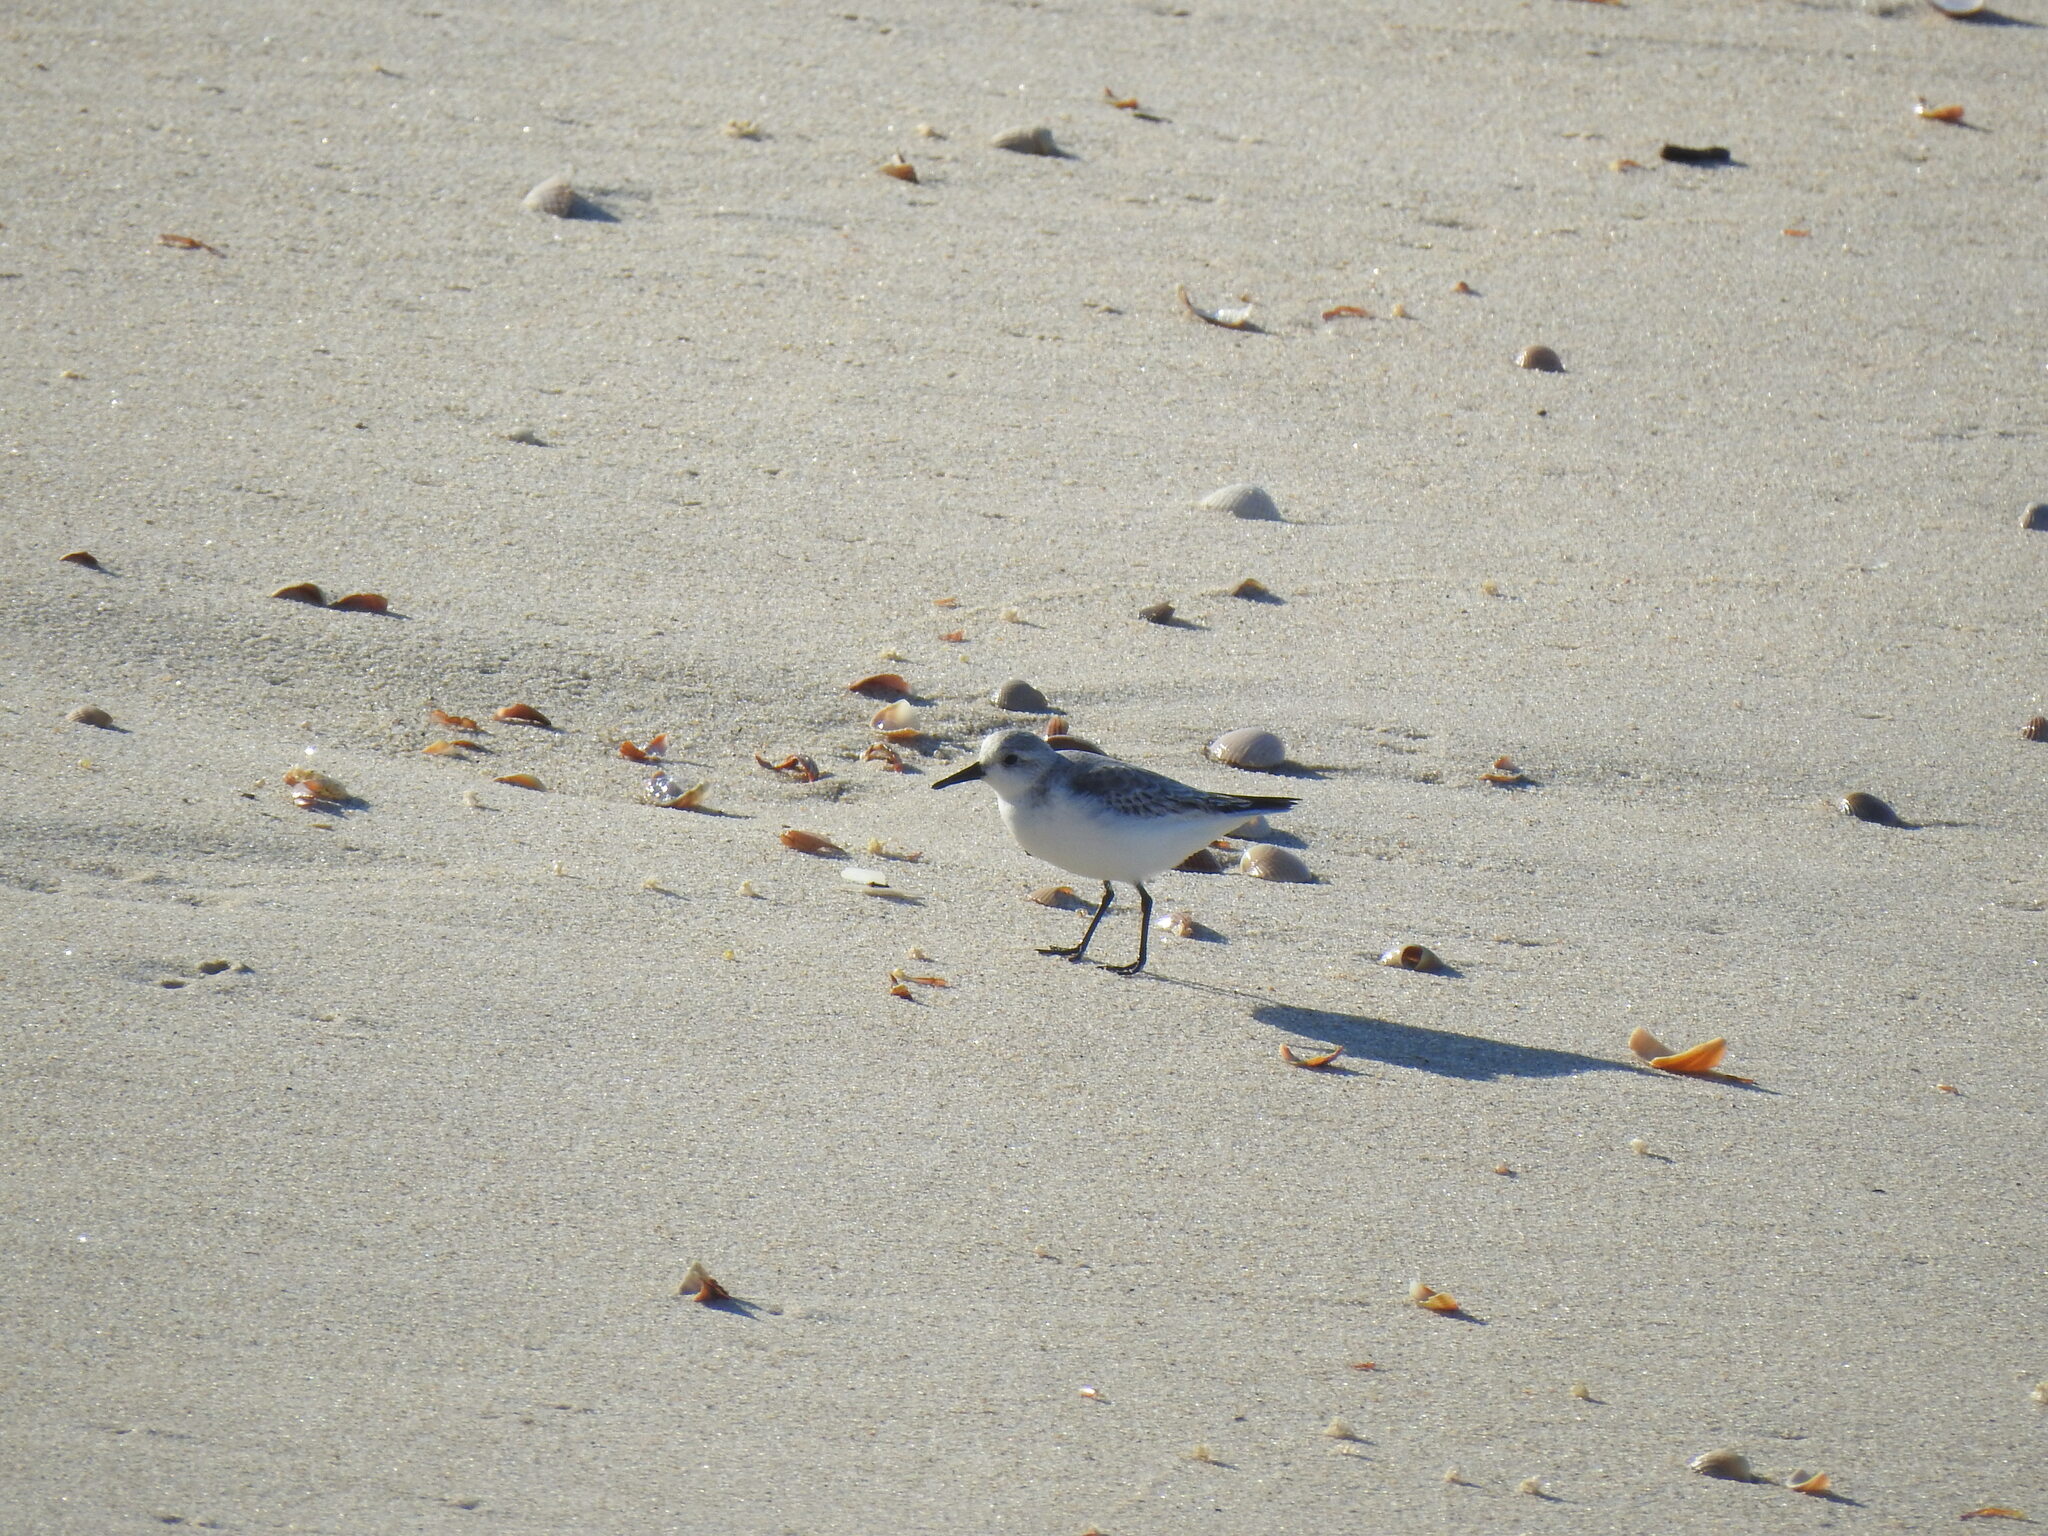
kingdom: Animalia
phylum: Chordata
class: Aves
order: Charadriiformes
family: Scolopacidae
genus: Calidris
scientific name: Calidris alba
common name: Sanderling
